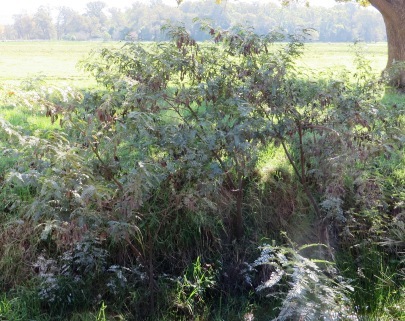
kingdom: Plantae
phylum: Tracheophyta
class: Magnoliopsida
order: Fabales
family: Fabaceae
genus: Sesbania
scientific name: Sesbania punicea
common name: Rattlebox
